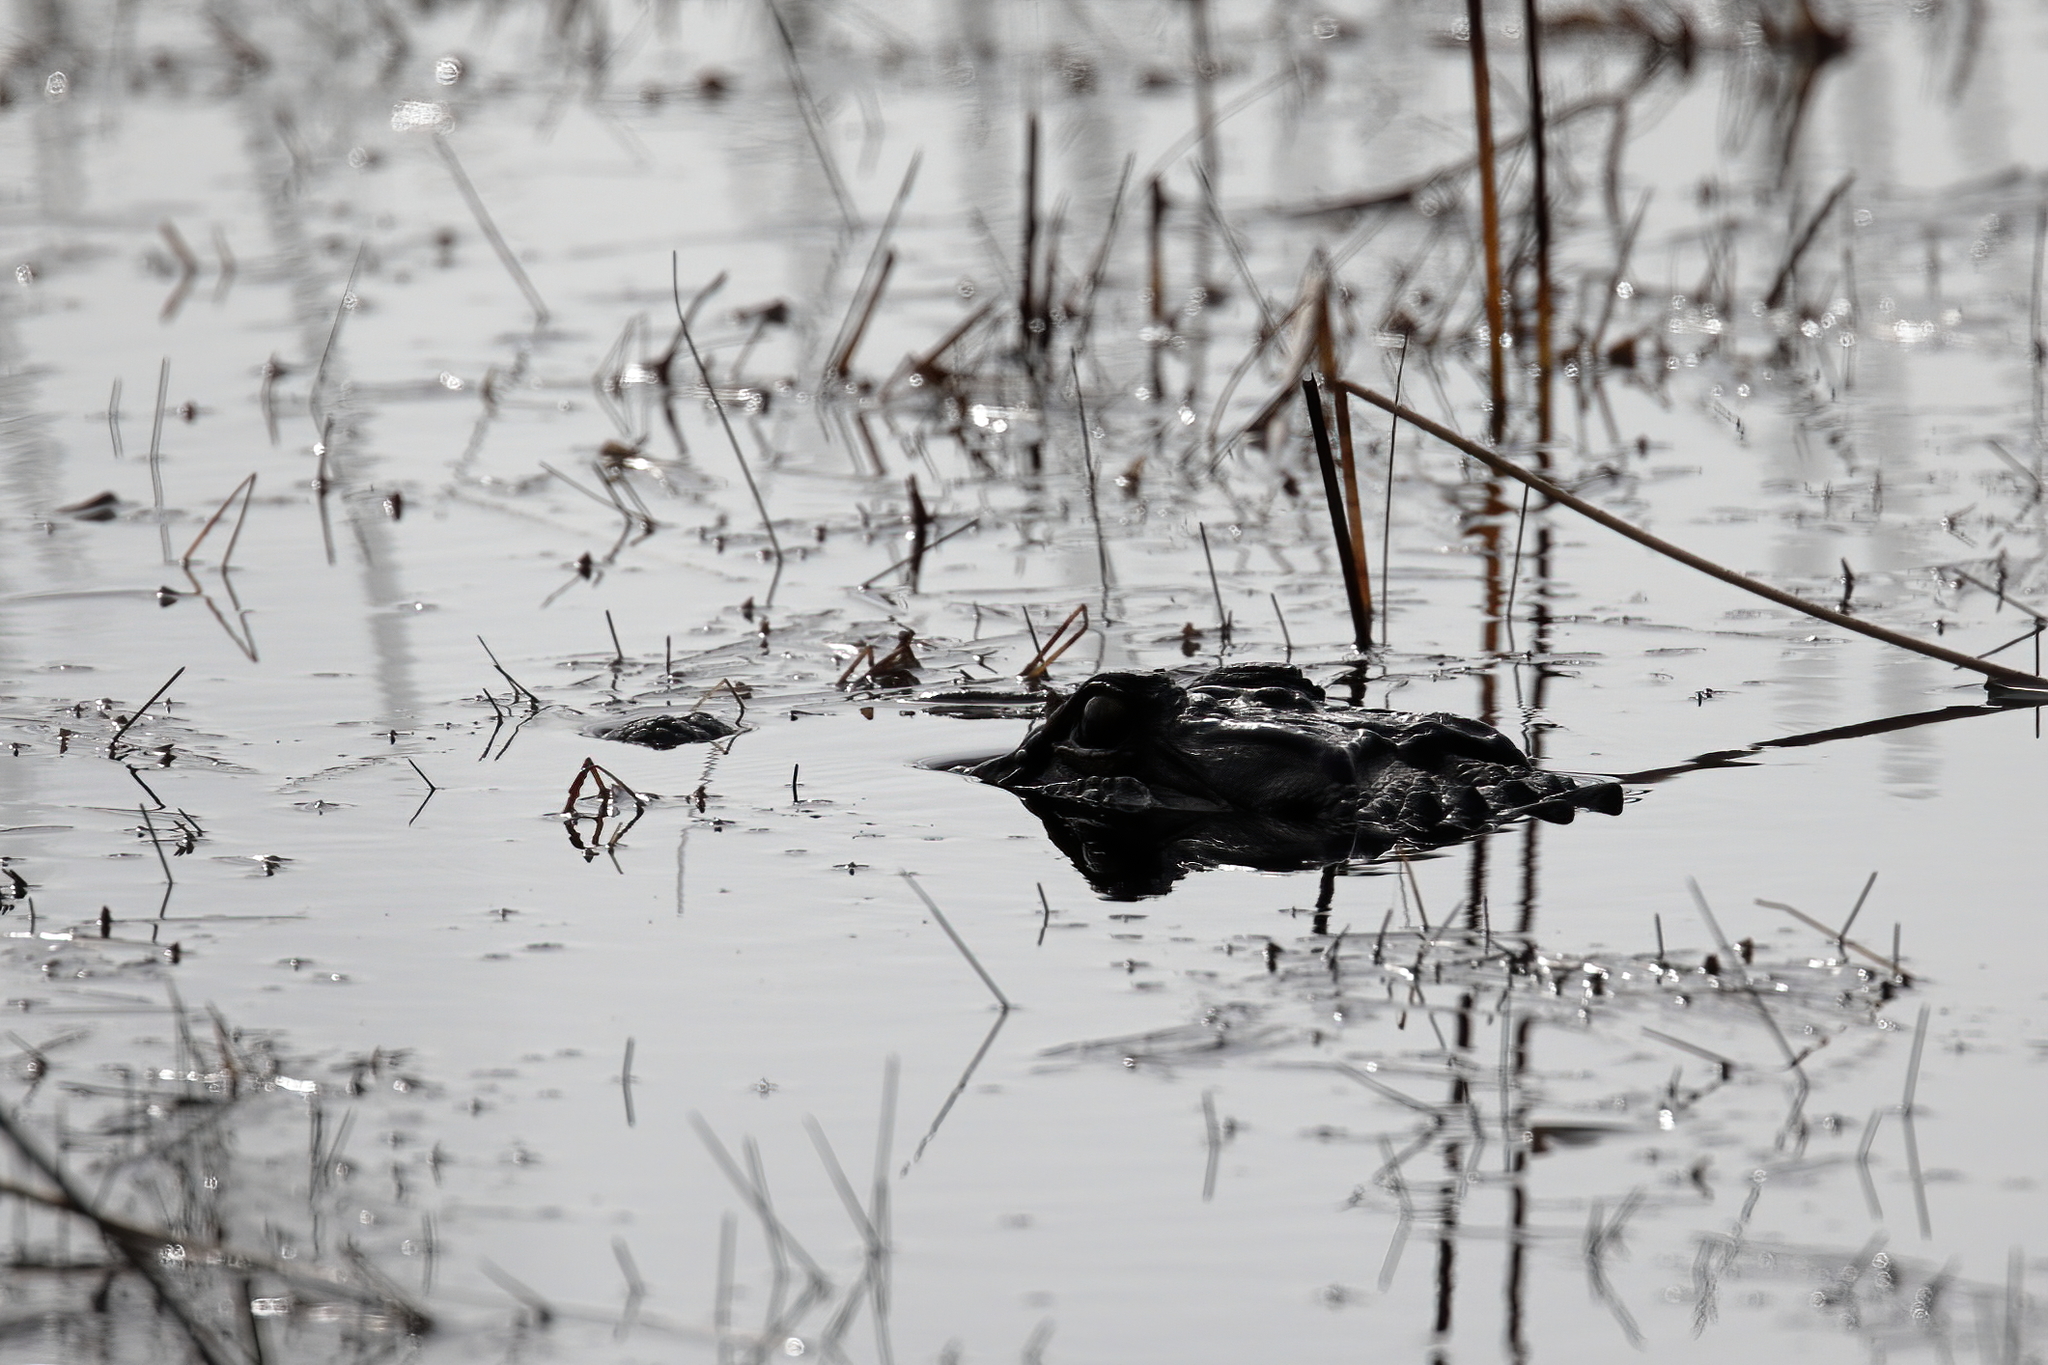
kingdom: Animalia
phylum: Chordata
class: Crocodylia
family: Alligatoridae
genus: Alligator
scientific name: Alligator mississippiensis
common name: American alligator
